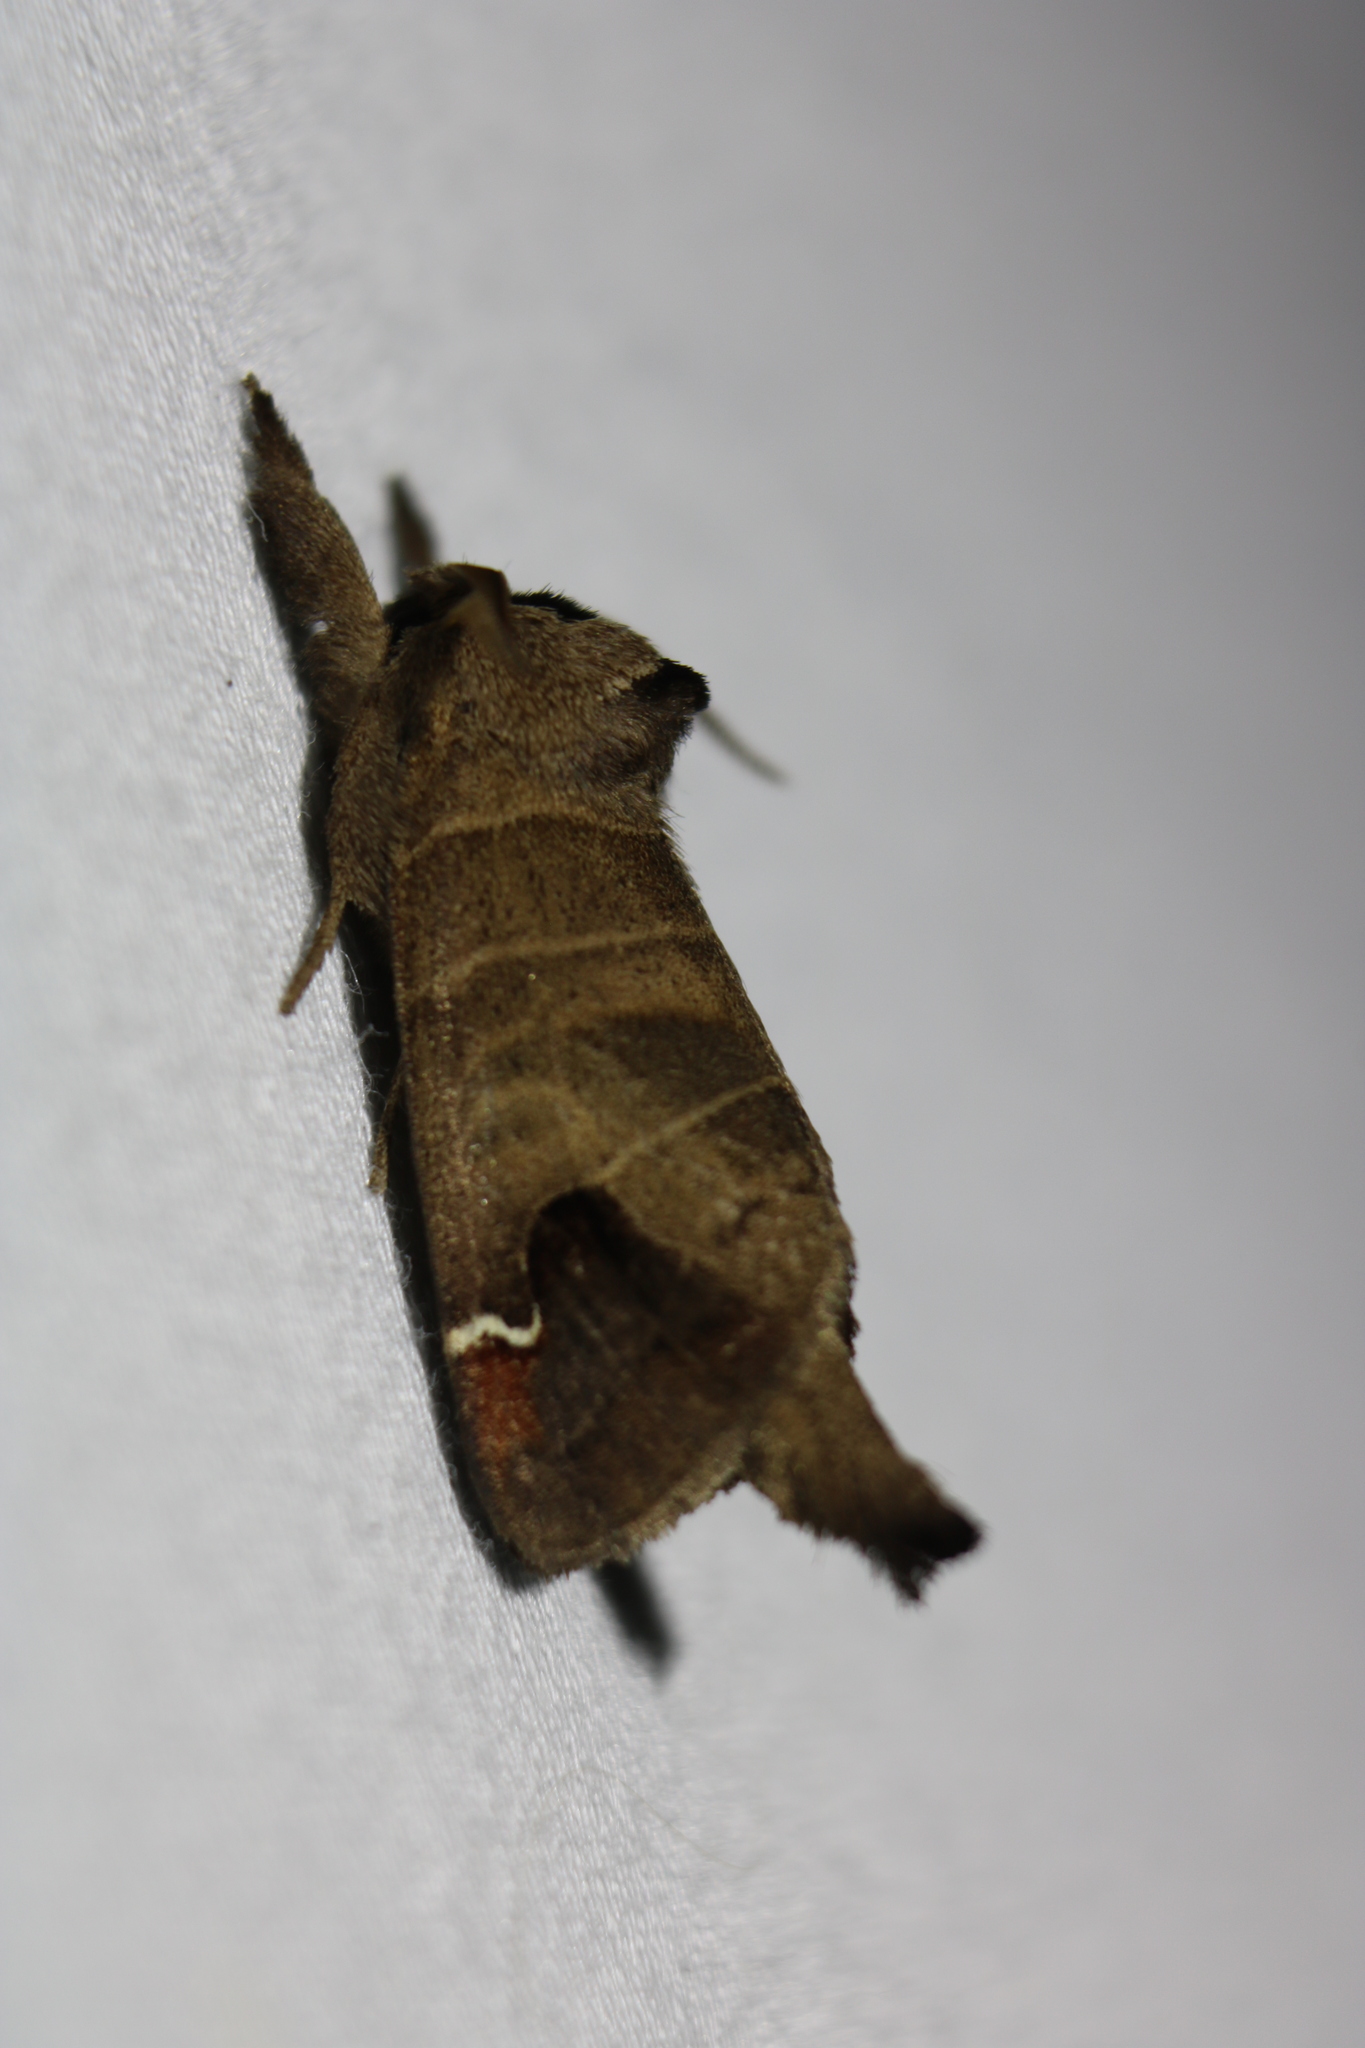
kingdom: Animalia
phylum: Arthropoda
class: Insecta
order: Lepidoptera
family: Notodontidae
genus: Clostera
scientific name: Clostera albosigma
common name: Sigmoid prominent
